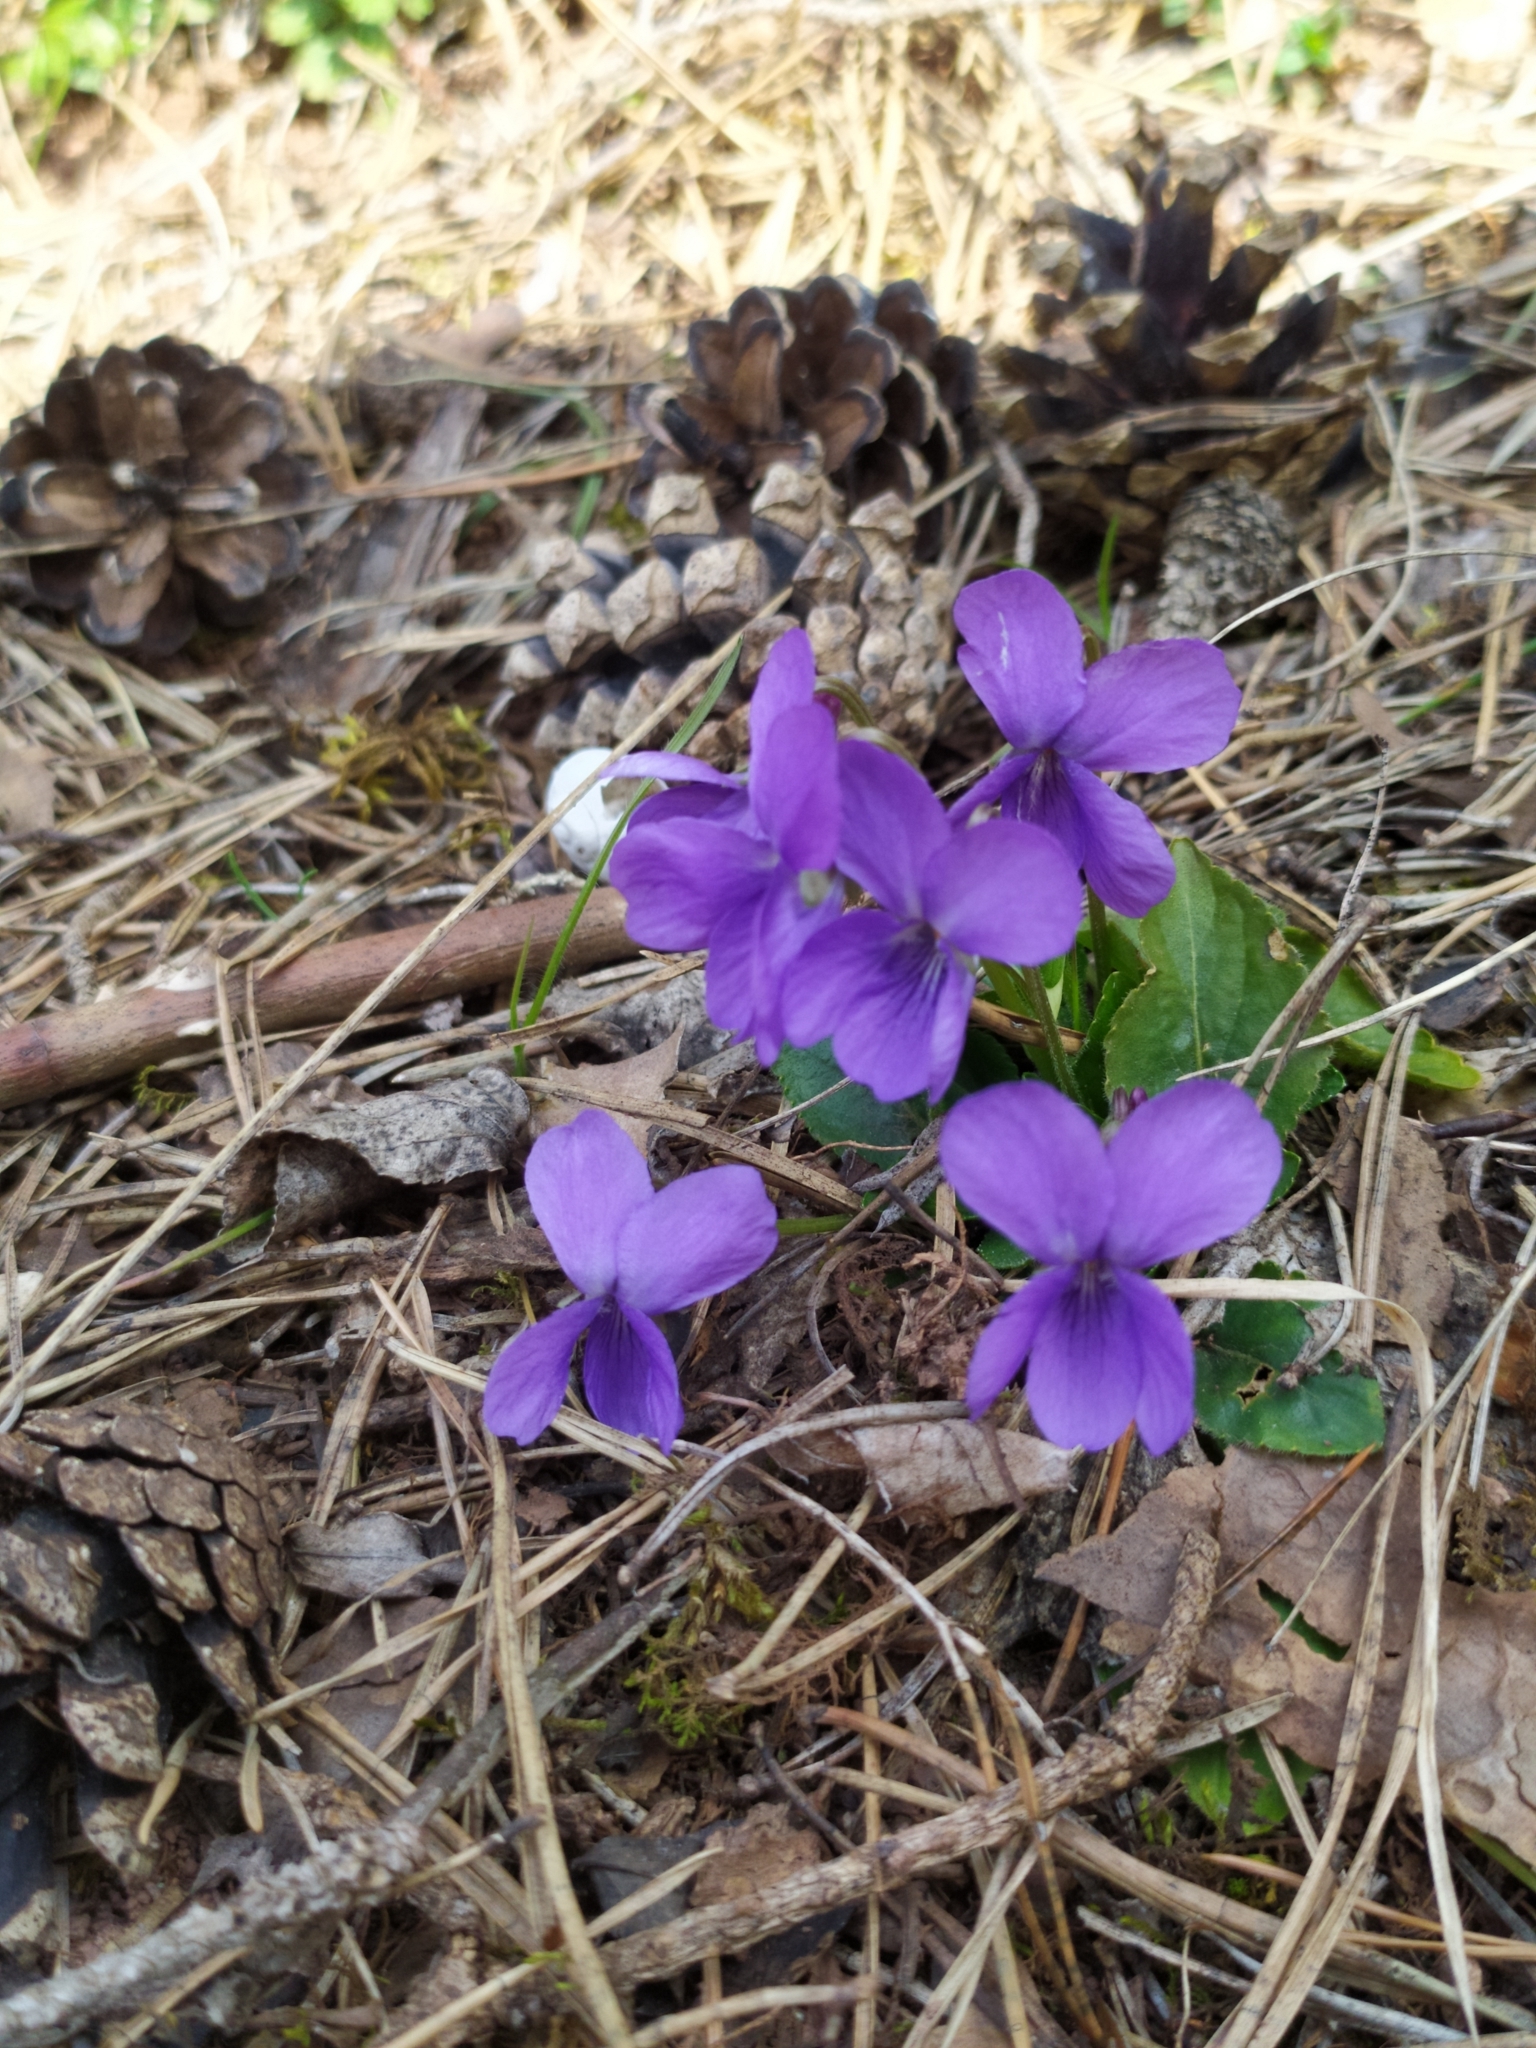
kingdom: Plantae
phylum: Tracheophyta
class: Magnoliopsida
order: Malpighiales
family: Violaceae
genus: Viola
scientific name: Viola hirta
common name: Hairy violet
